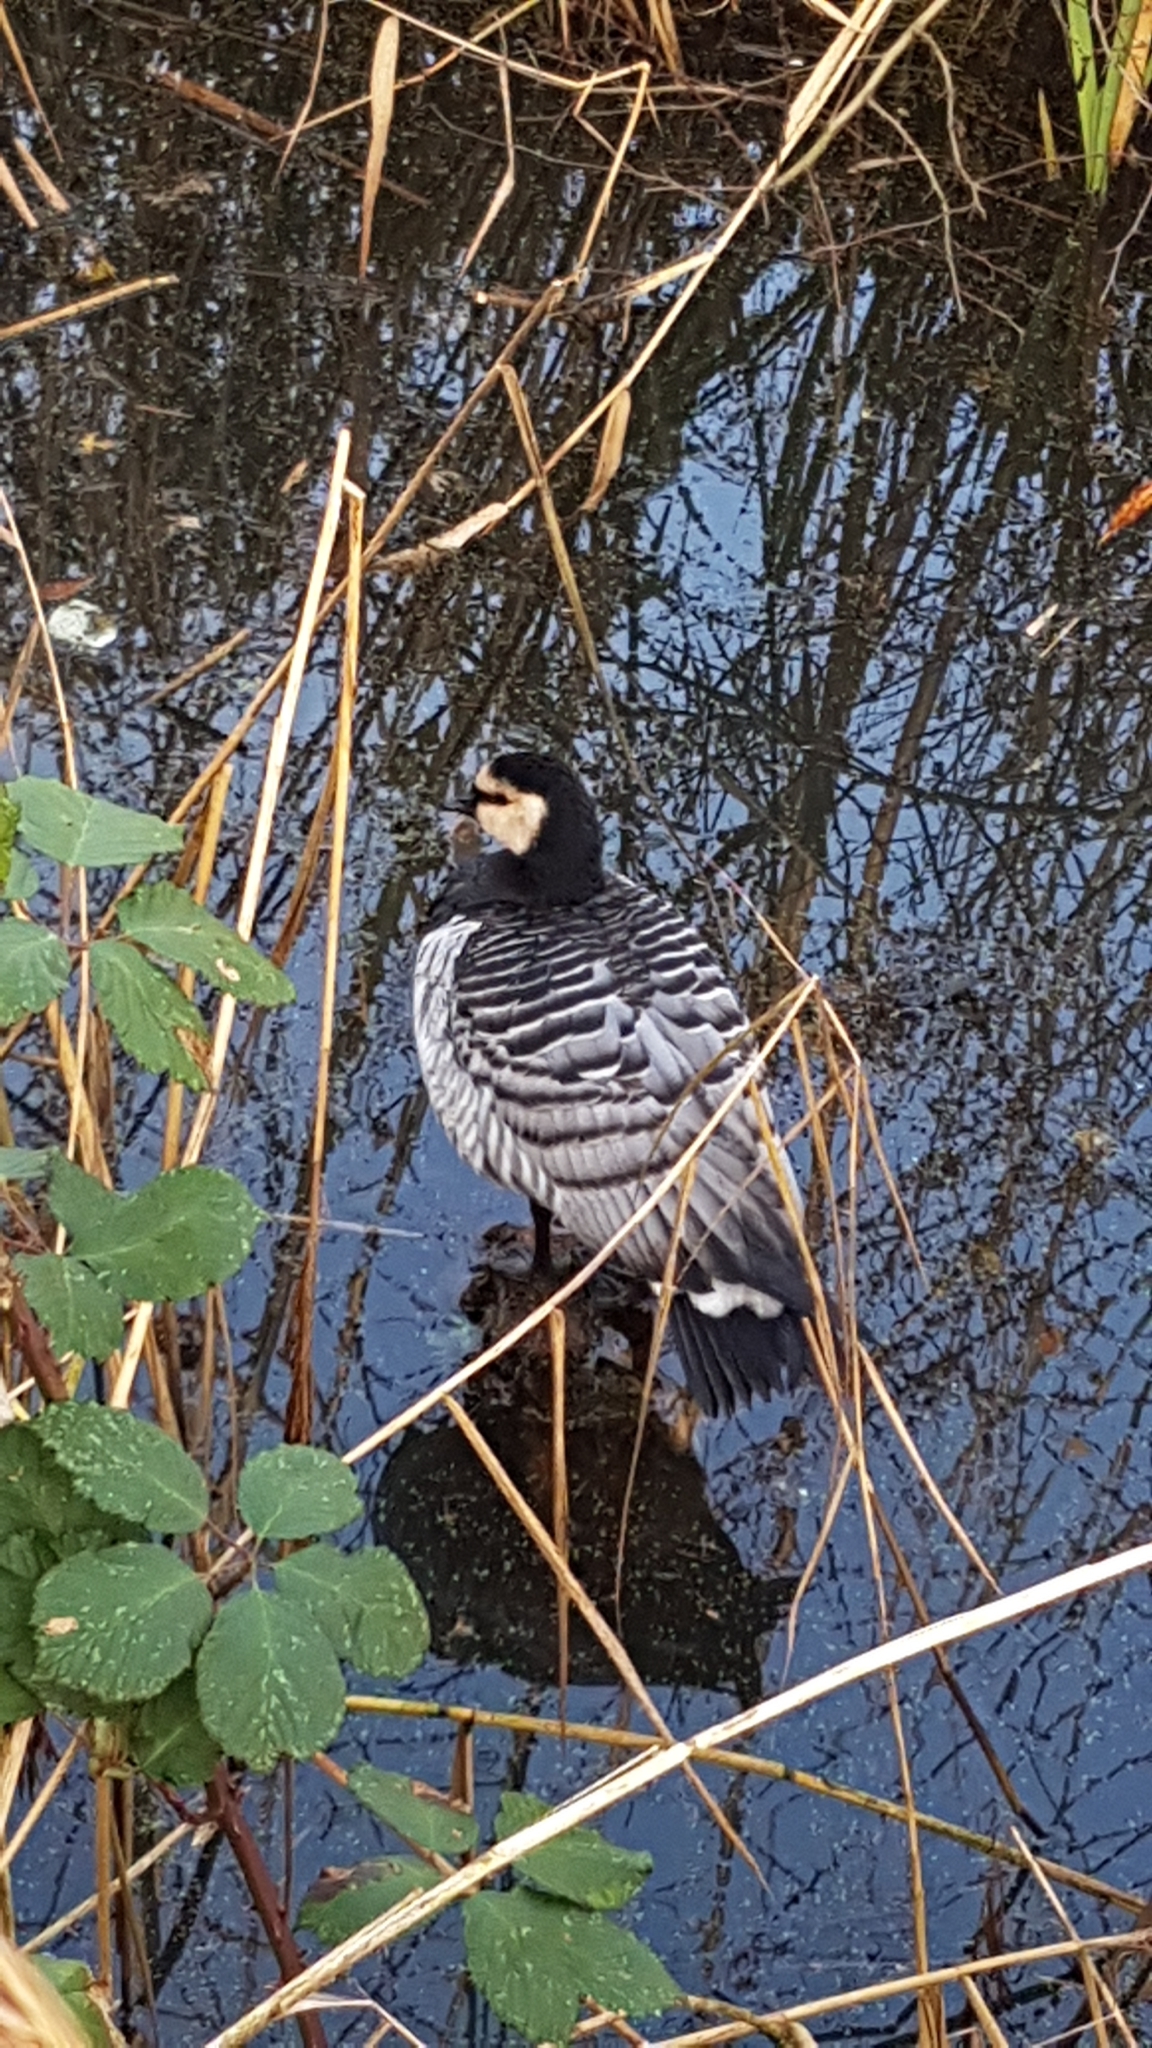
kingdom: Animalia
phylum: Chordata
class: Aves
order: Anseriformes
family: Anatidae
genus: Branta
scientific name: Branta leucopsis
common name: Barnacle goose
